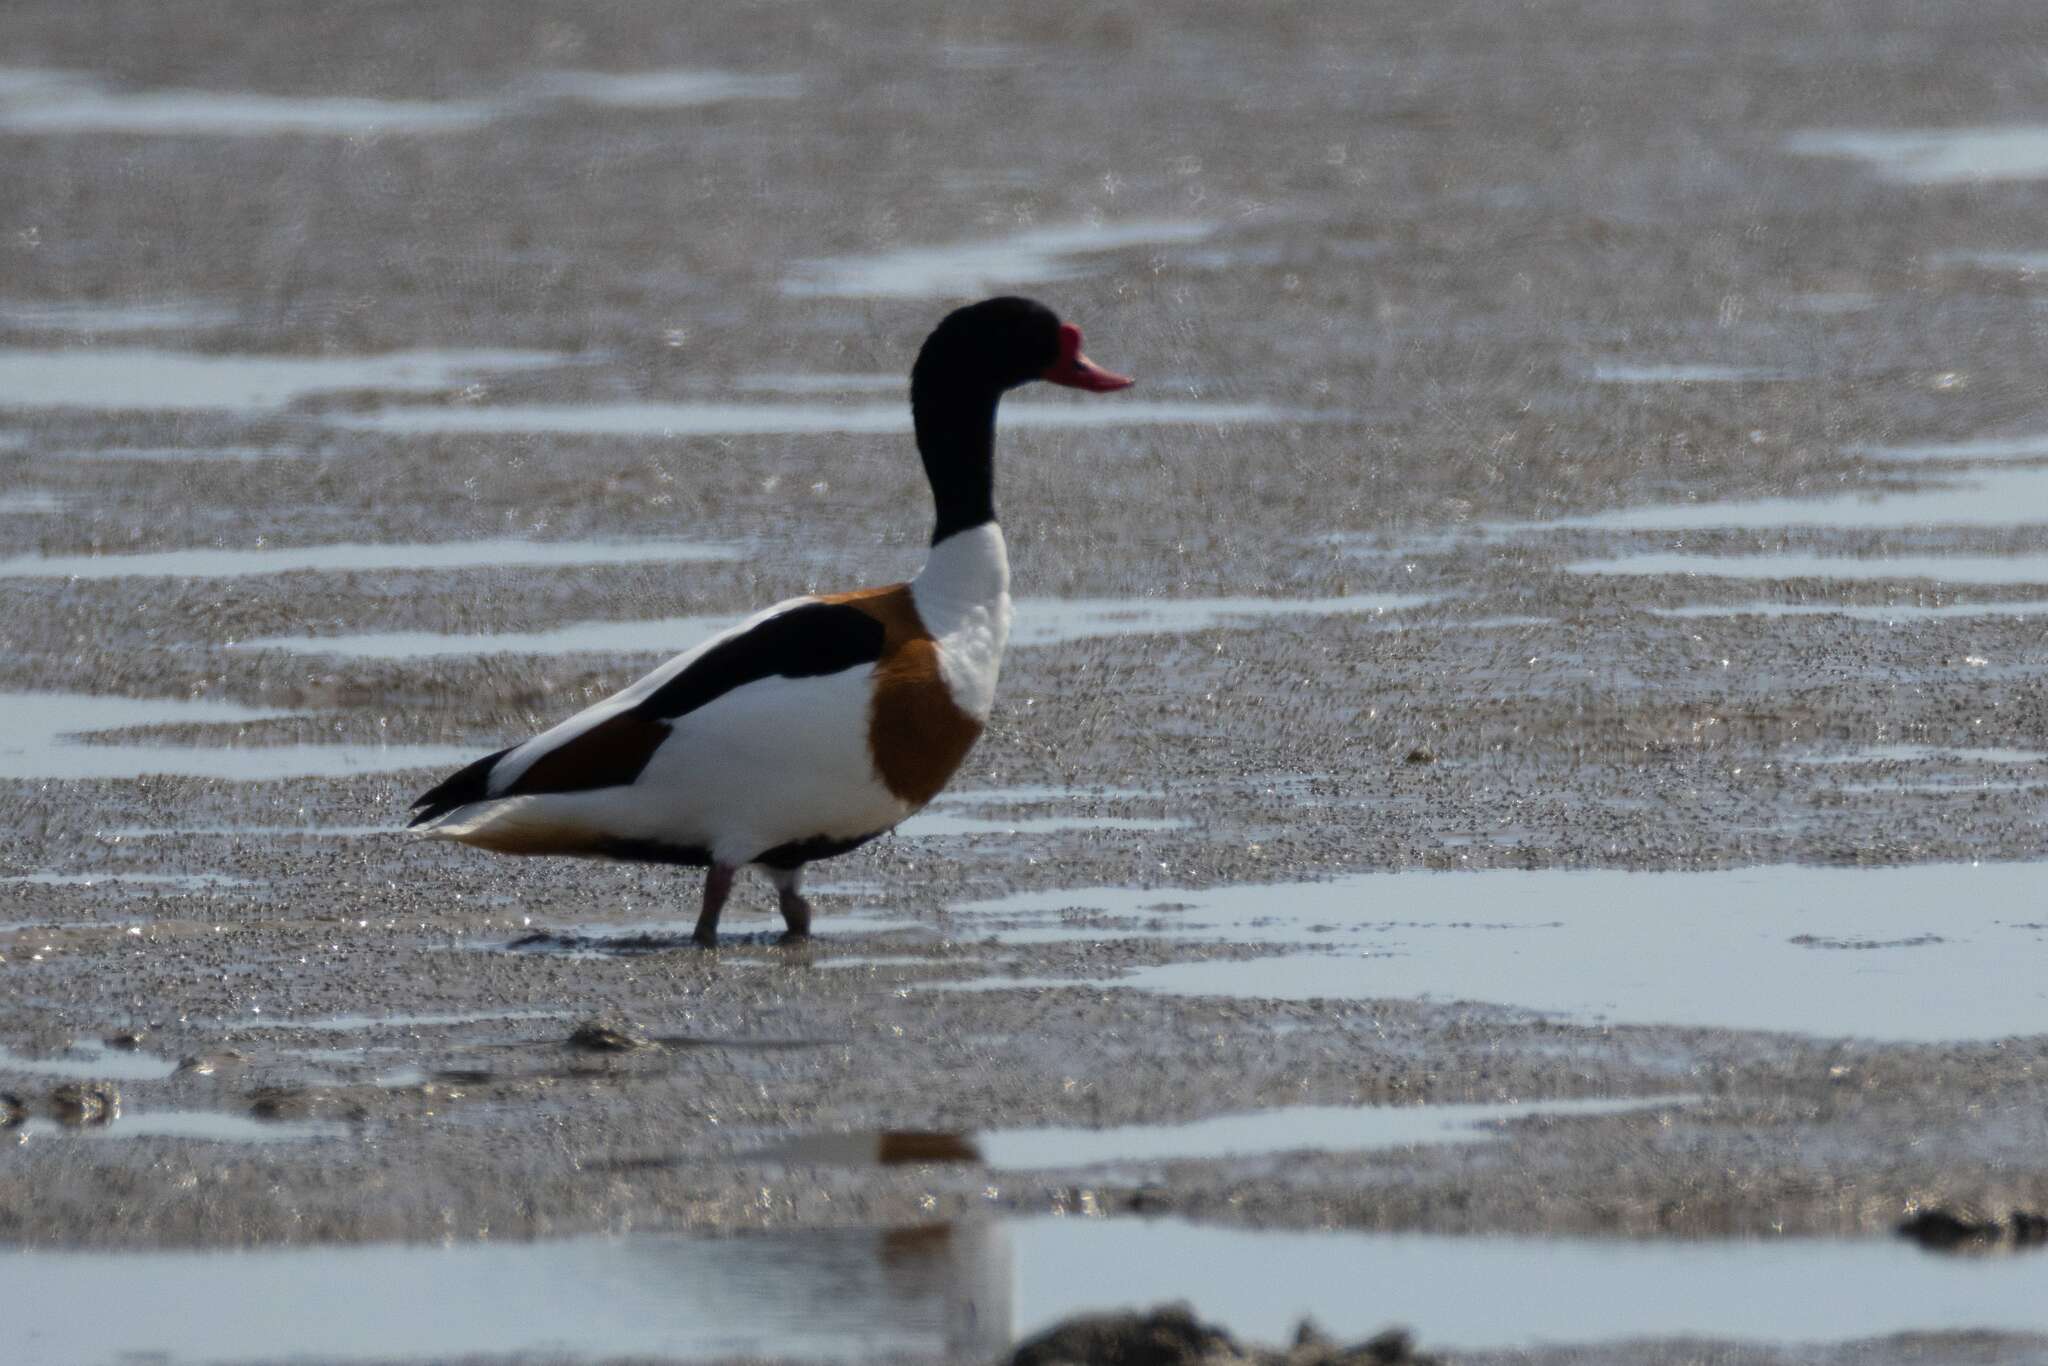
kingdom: Animalia
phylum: Chordata
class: Aves
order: Anseriformes
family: Anatidae
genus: Tadorna
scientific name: Tadorna tadorna
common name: Common shelduck
